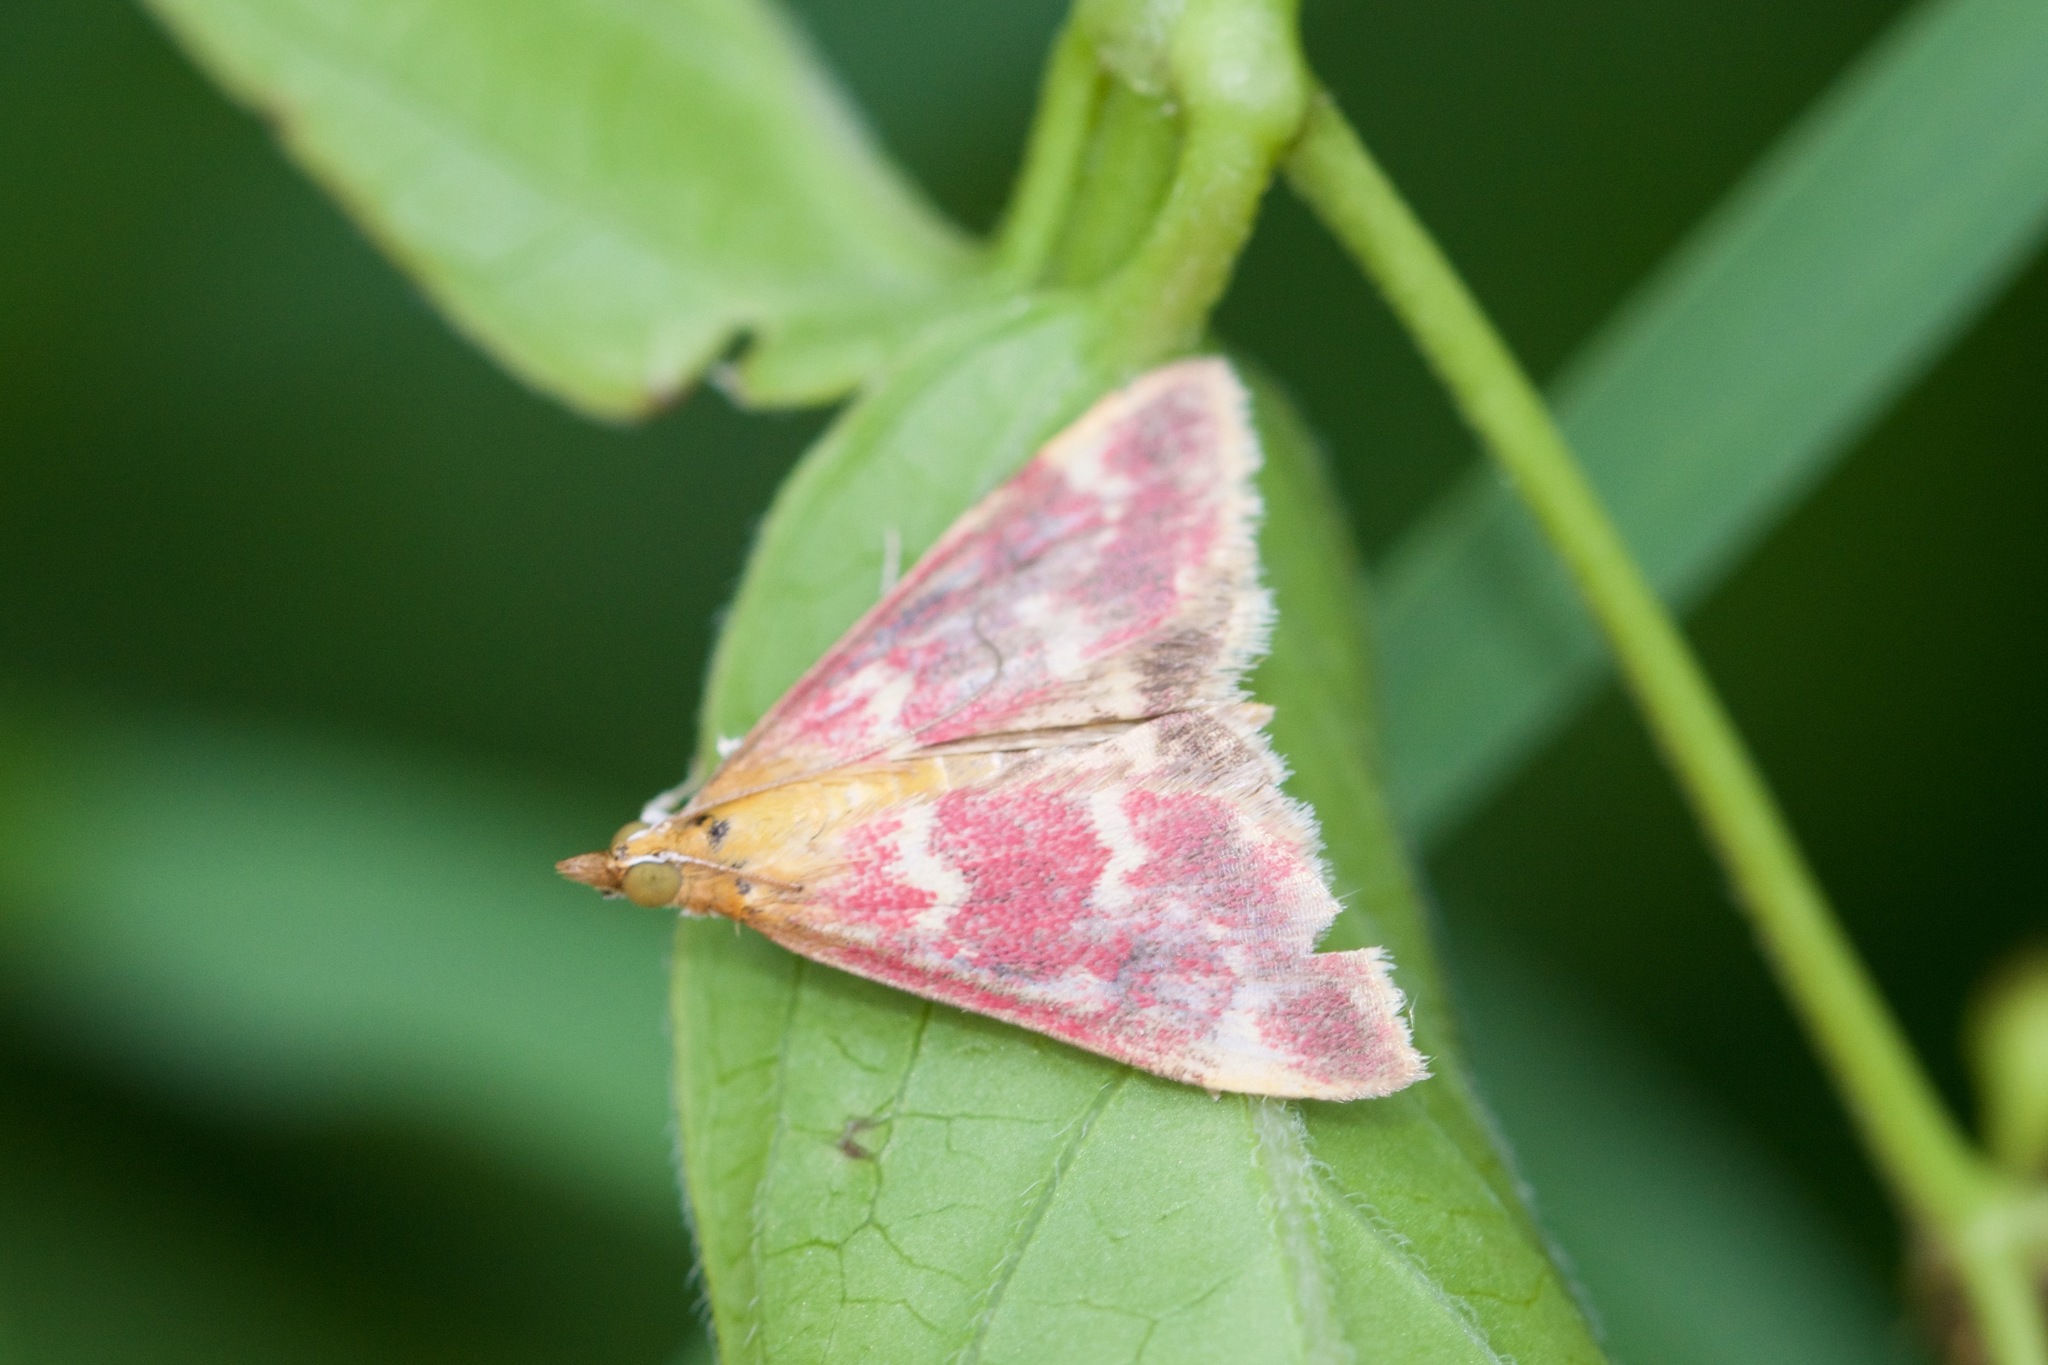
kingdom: Animalia
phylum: Arthropoda
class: Insecta
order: Lepidoptera
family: Crambidae
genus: Pyrausta
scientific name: Pyrausta signatalis
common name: Raspberry pyrausta moth
